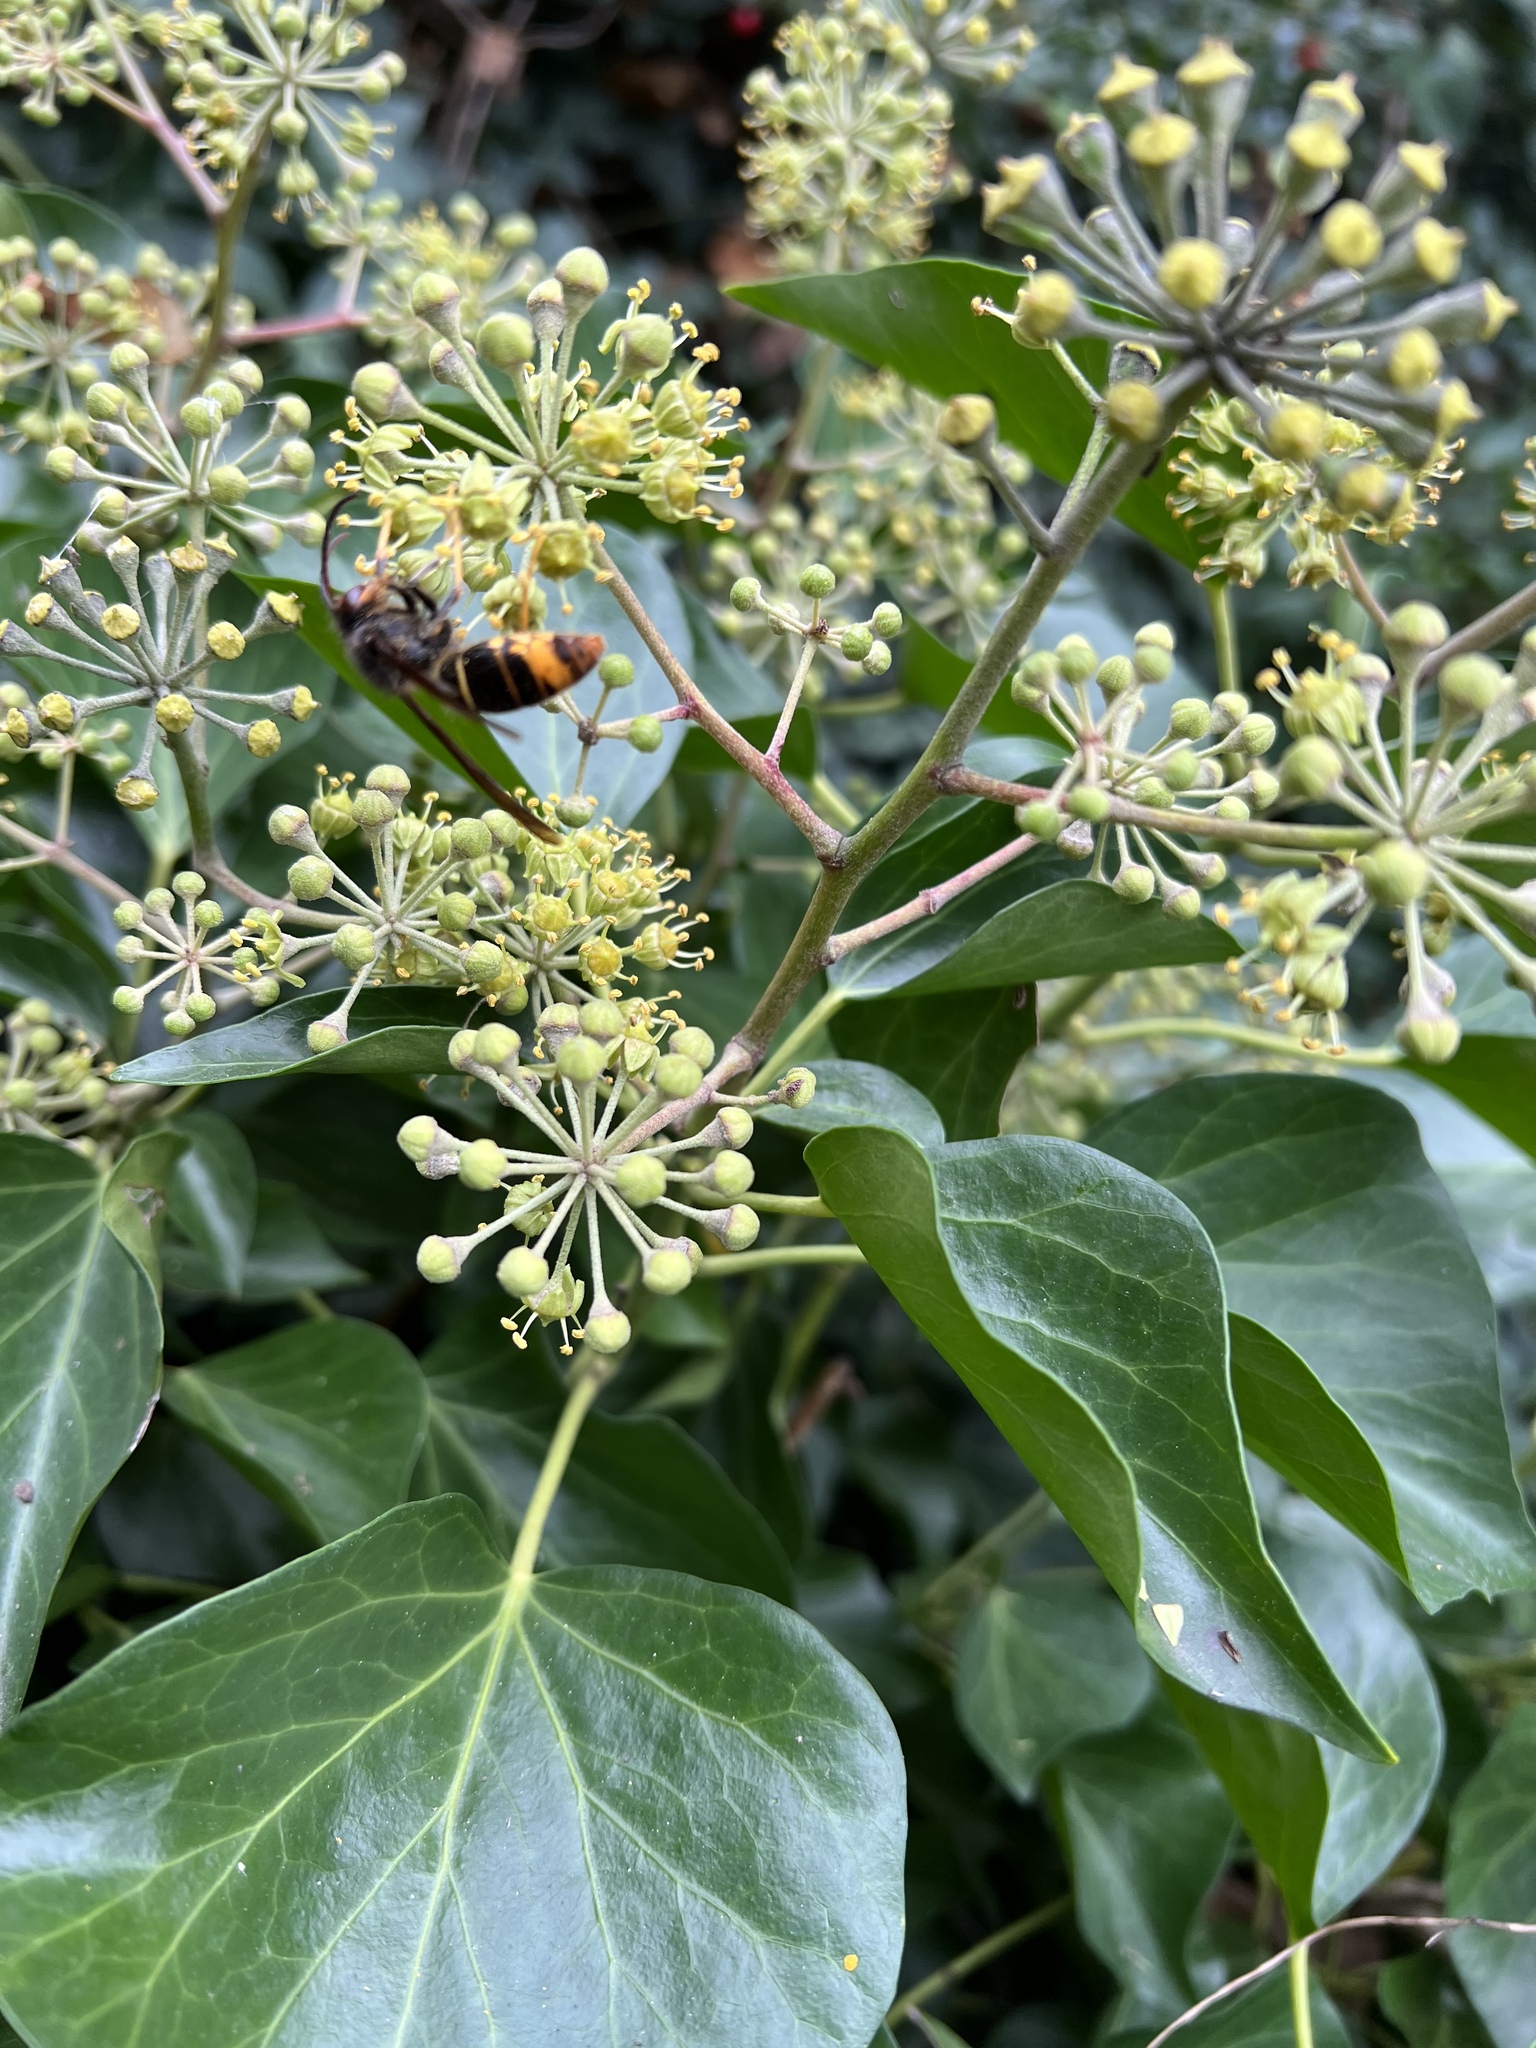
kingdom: Animalia
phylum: Arthropoda
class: Insecta
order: Hymenoptera
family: Vespidae
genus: Vespa
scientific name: Vespa velutina
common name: Asian hornet
